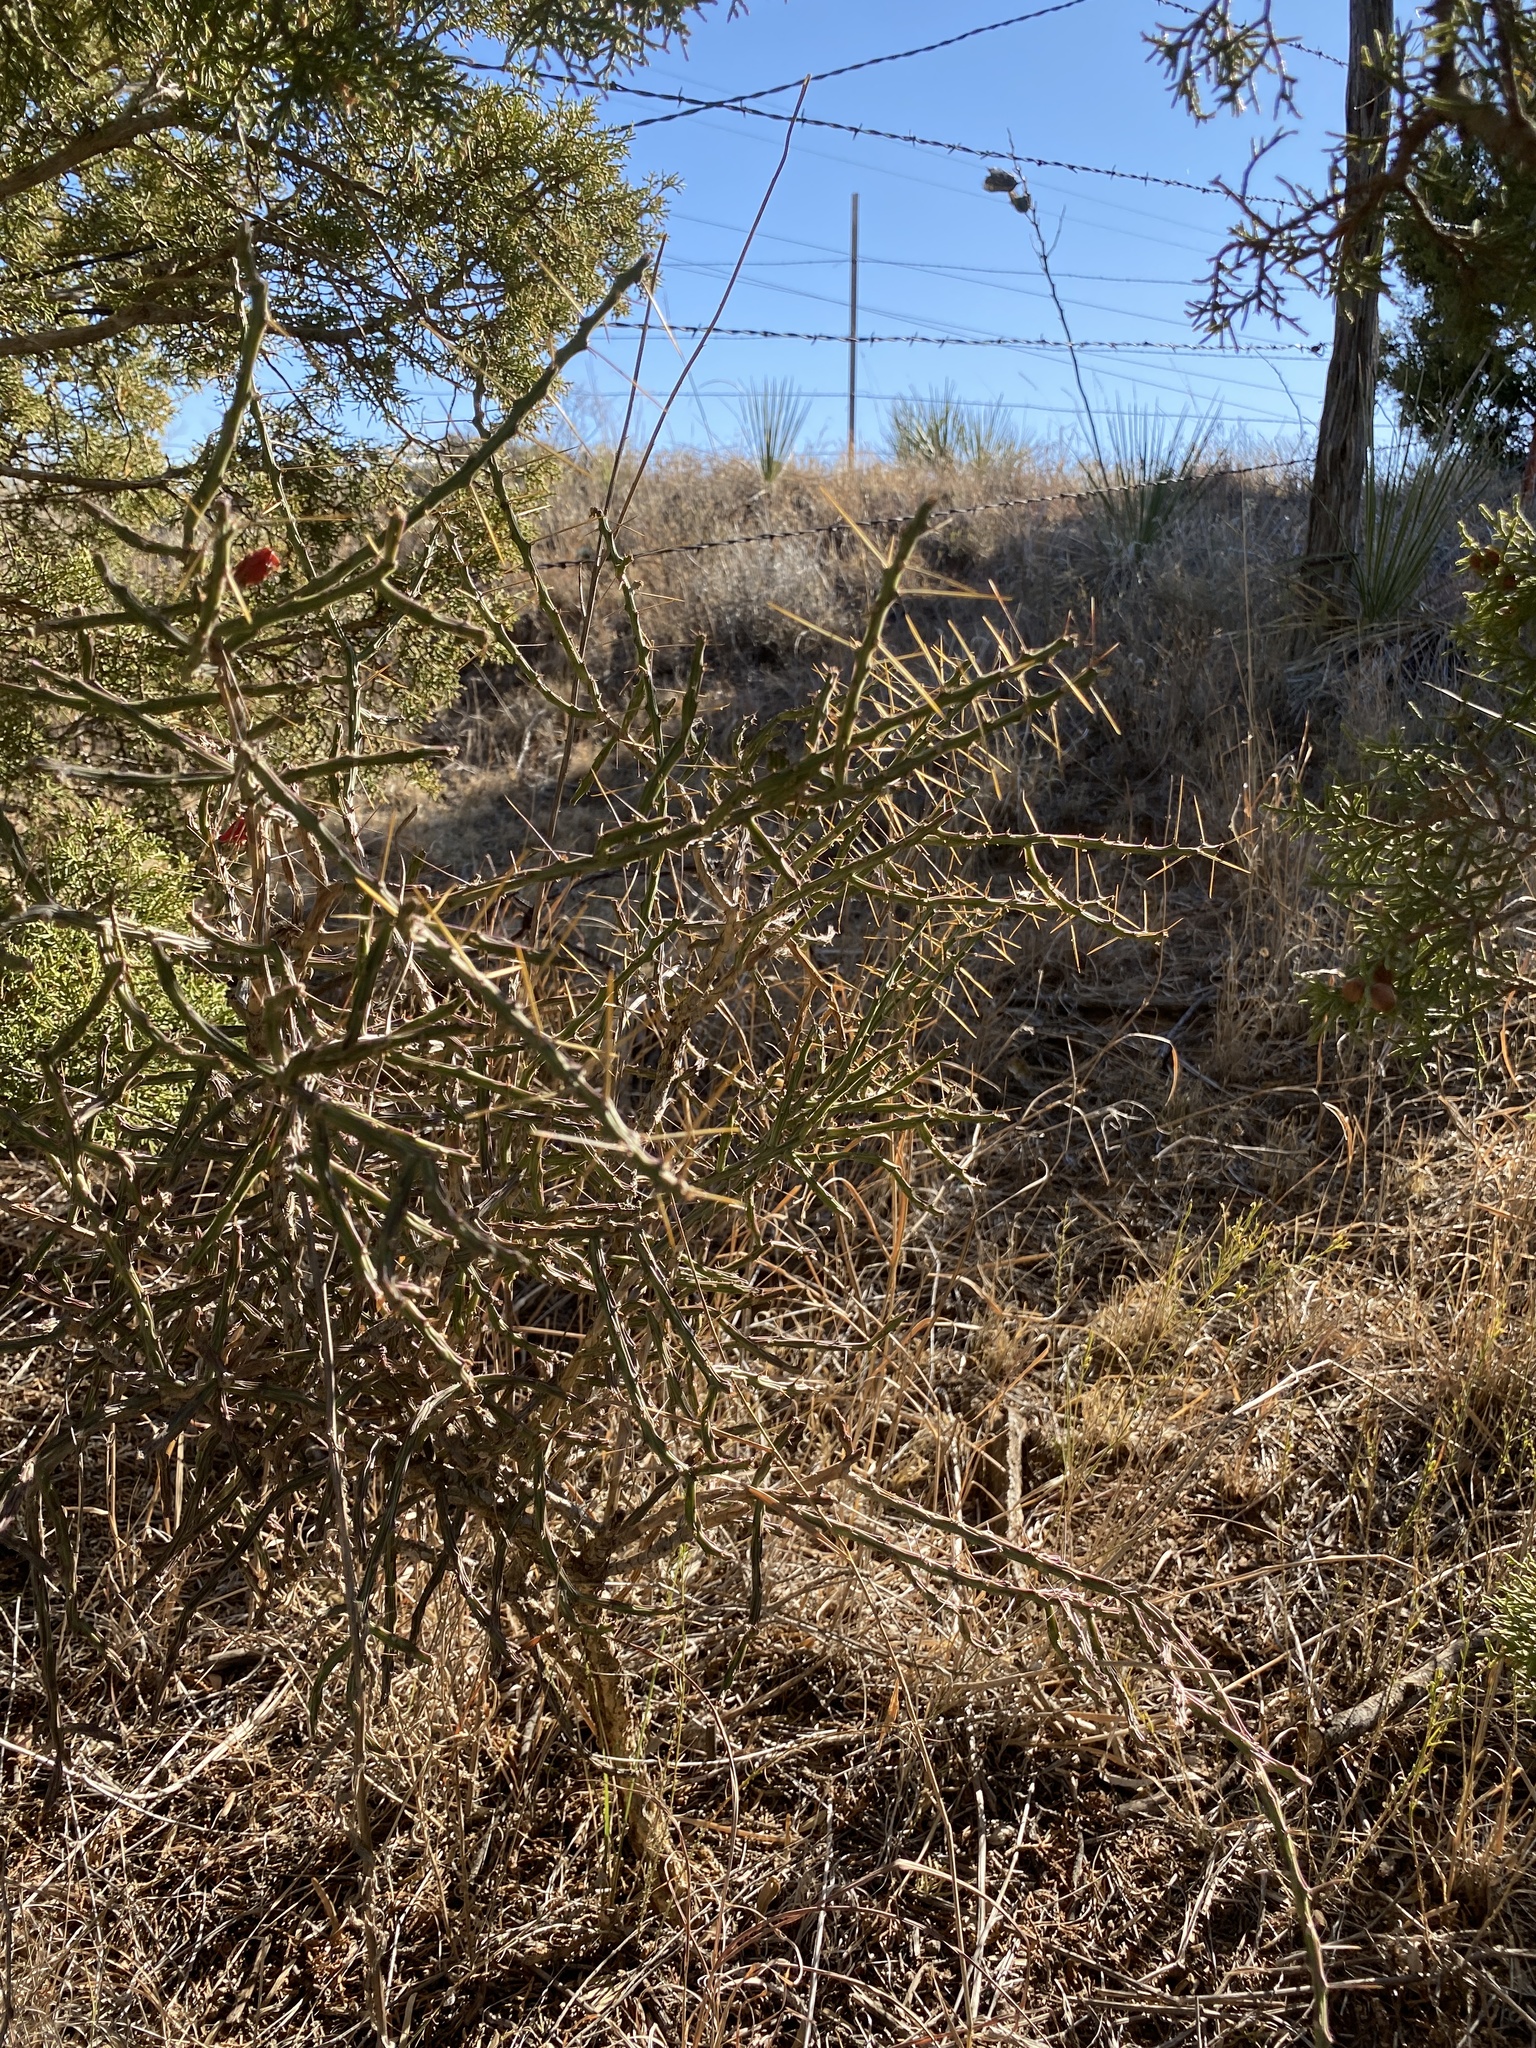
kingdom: Plantae
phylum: Tracheophyta
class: Magnoliopsida
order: Caryophyllales
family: Cactaceae
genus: Cylindropuntia
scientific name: Cylindropuntia leptocaulis
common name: Christmas cactus
